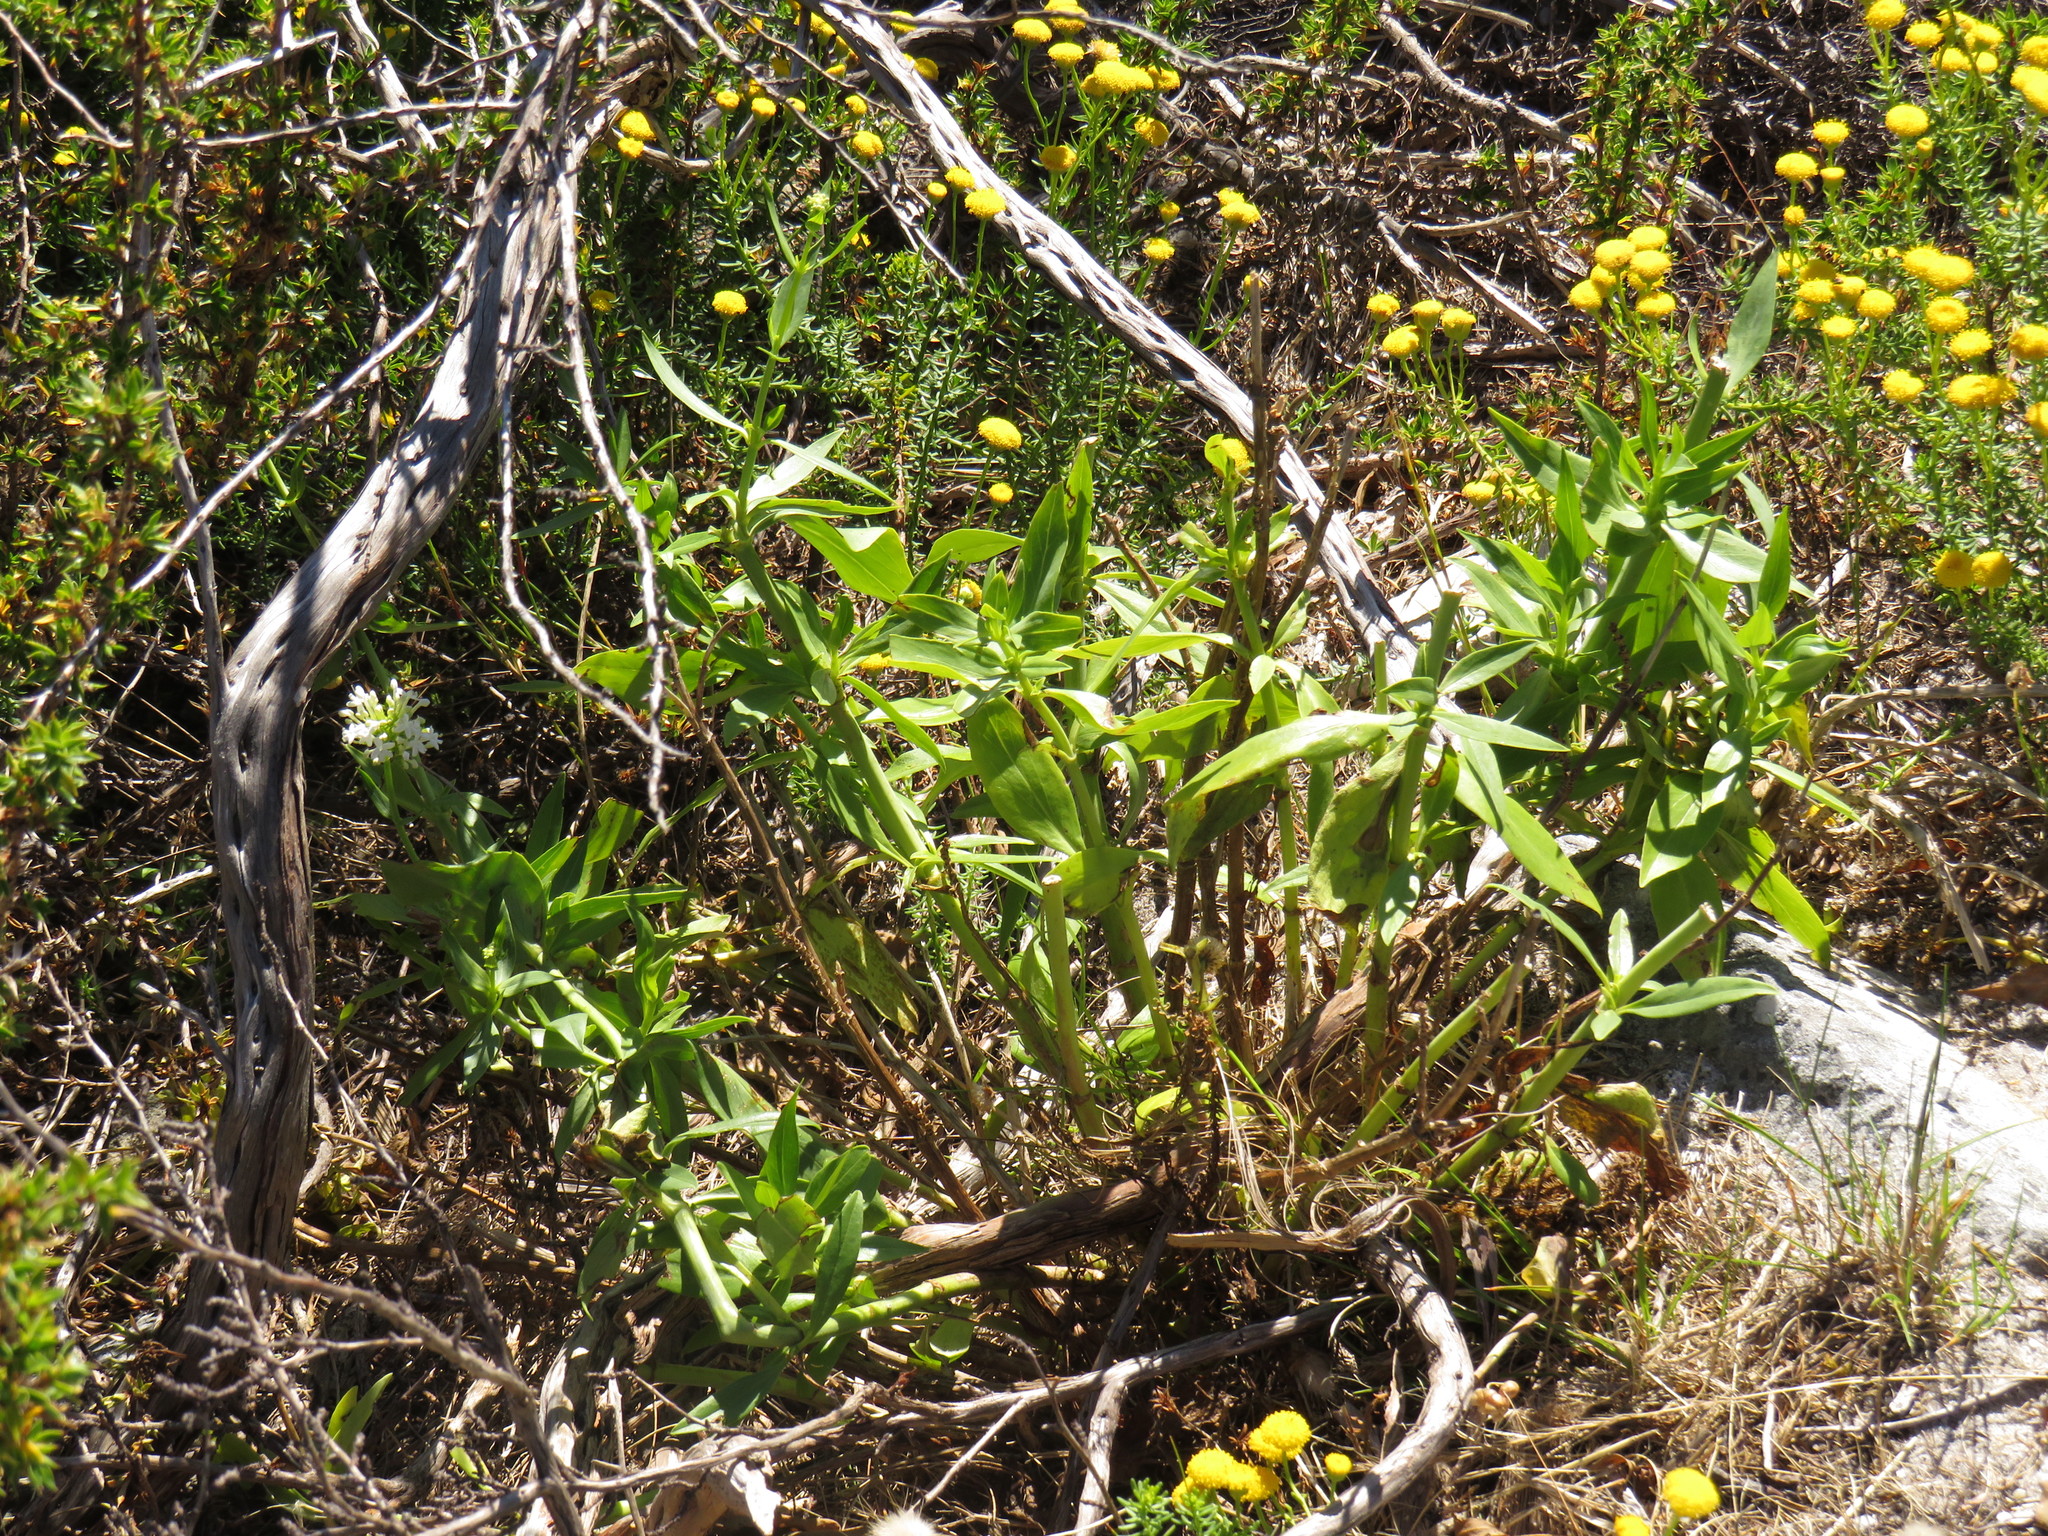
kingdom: Plantae
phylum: Tracheophyta
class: Magnoliopsida
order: Dipsacales
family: Caprifoliaceae
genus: Centranthus
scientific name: Centranthus ruber
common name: Red valerian
